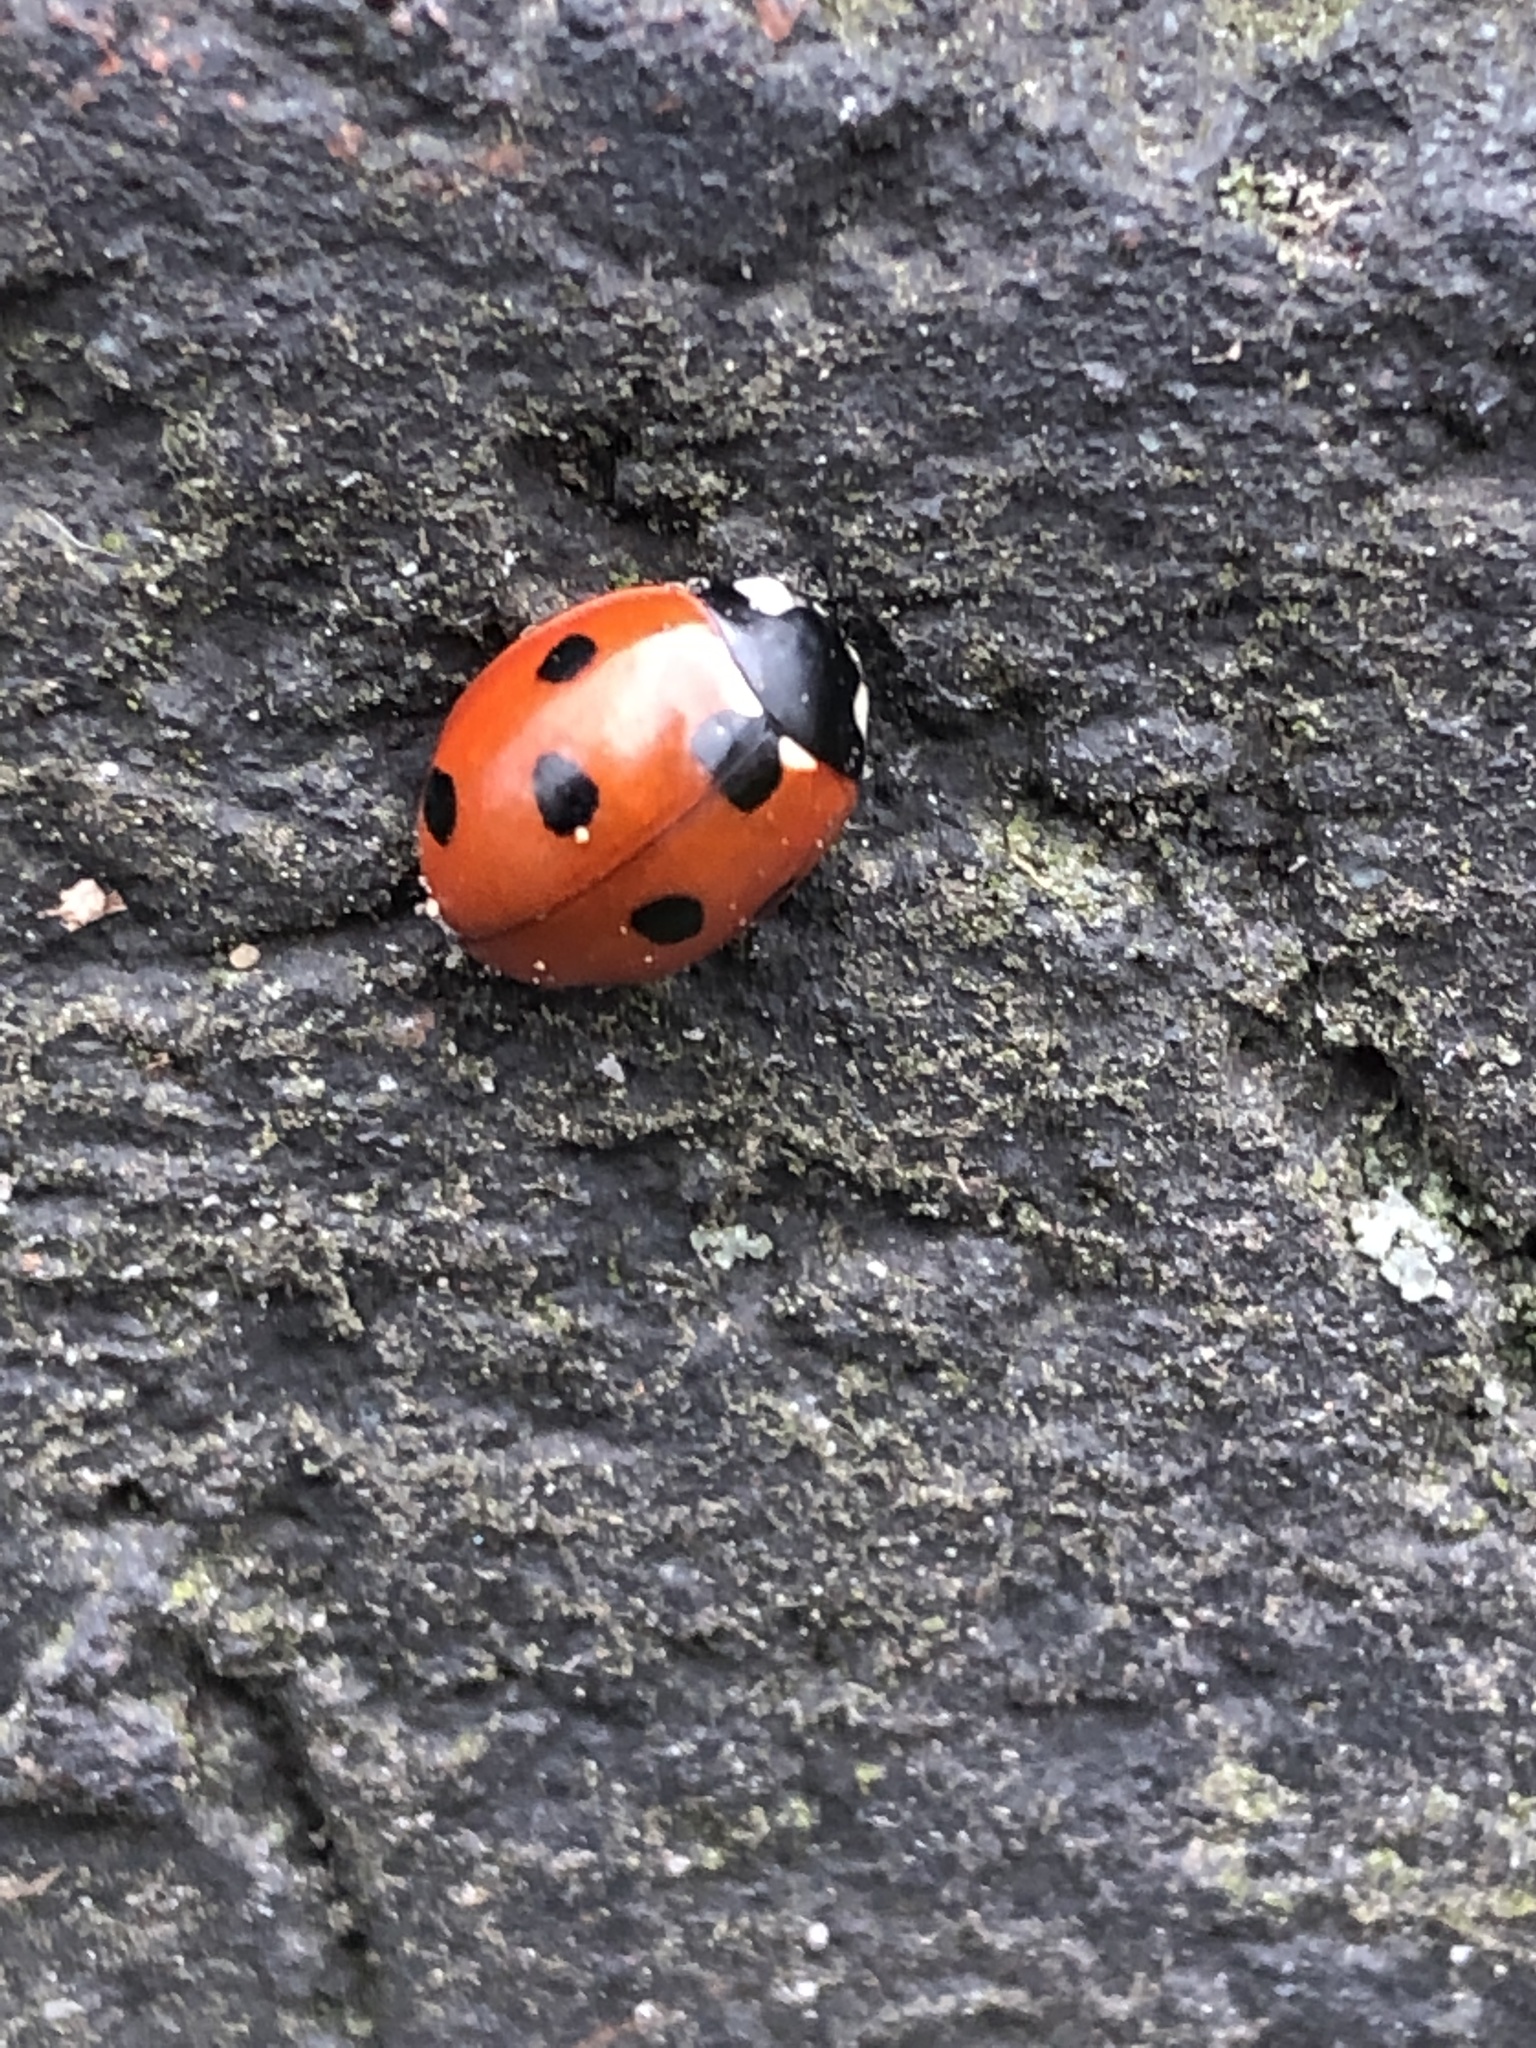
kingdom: Animalia
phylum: Arthropoda
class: Insecta
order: Coleoptera
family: Coccinellidae
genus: Coccinella
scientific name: Coccinella septempunctata
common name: Sevenspotted lady beetle
